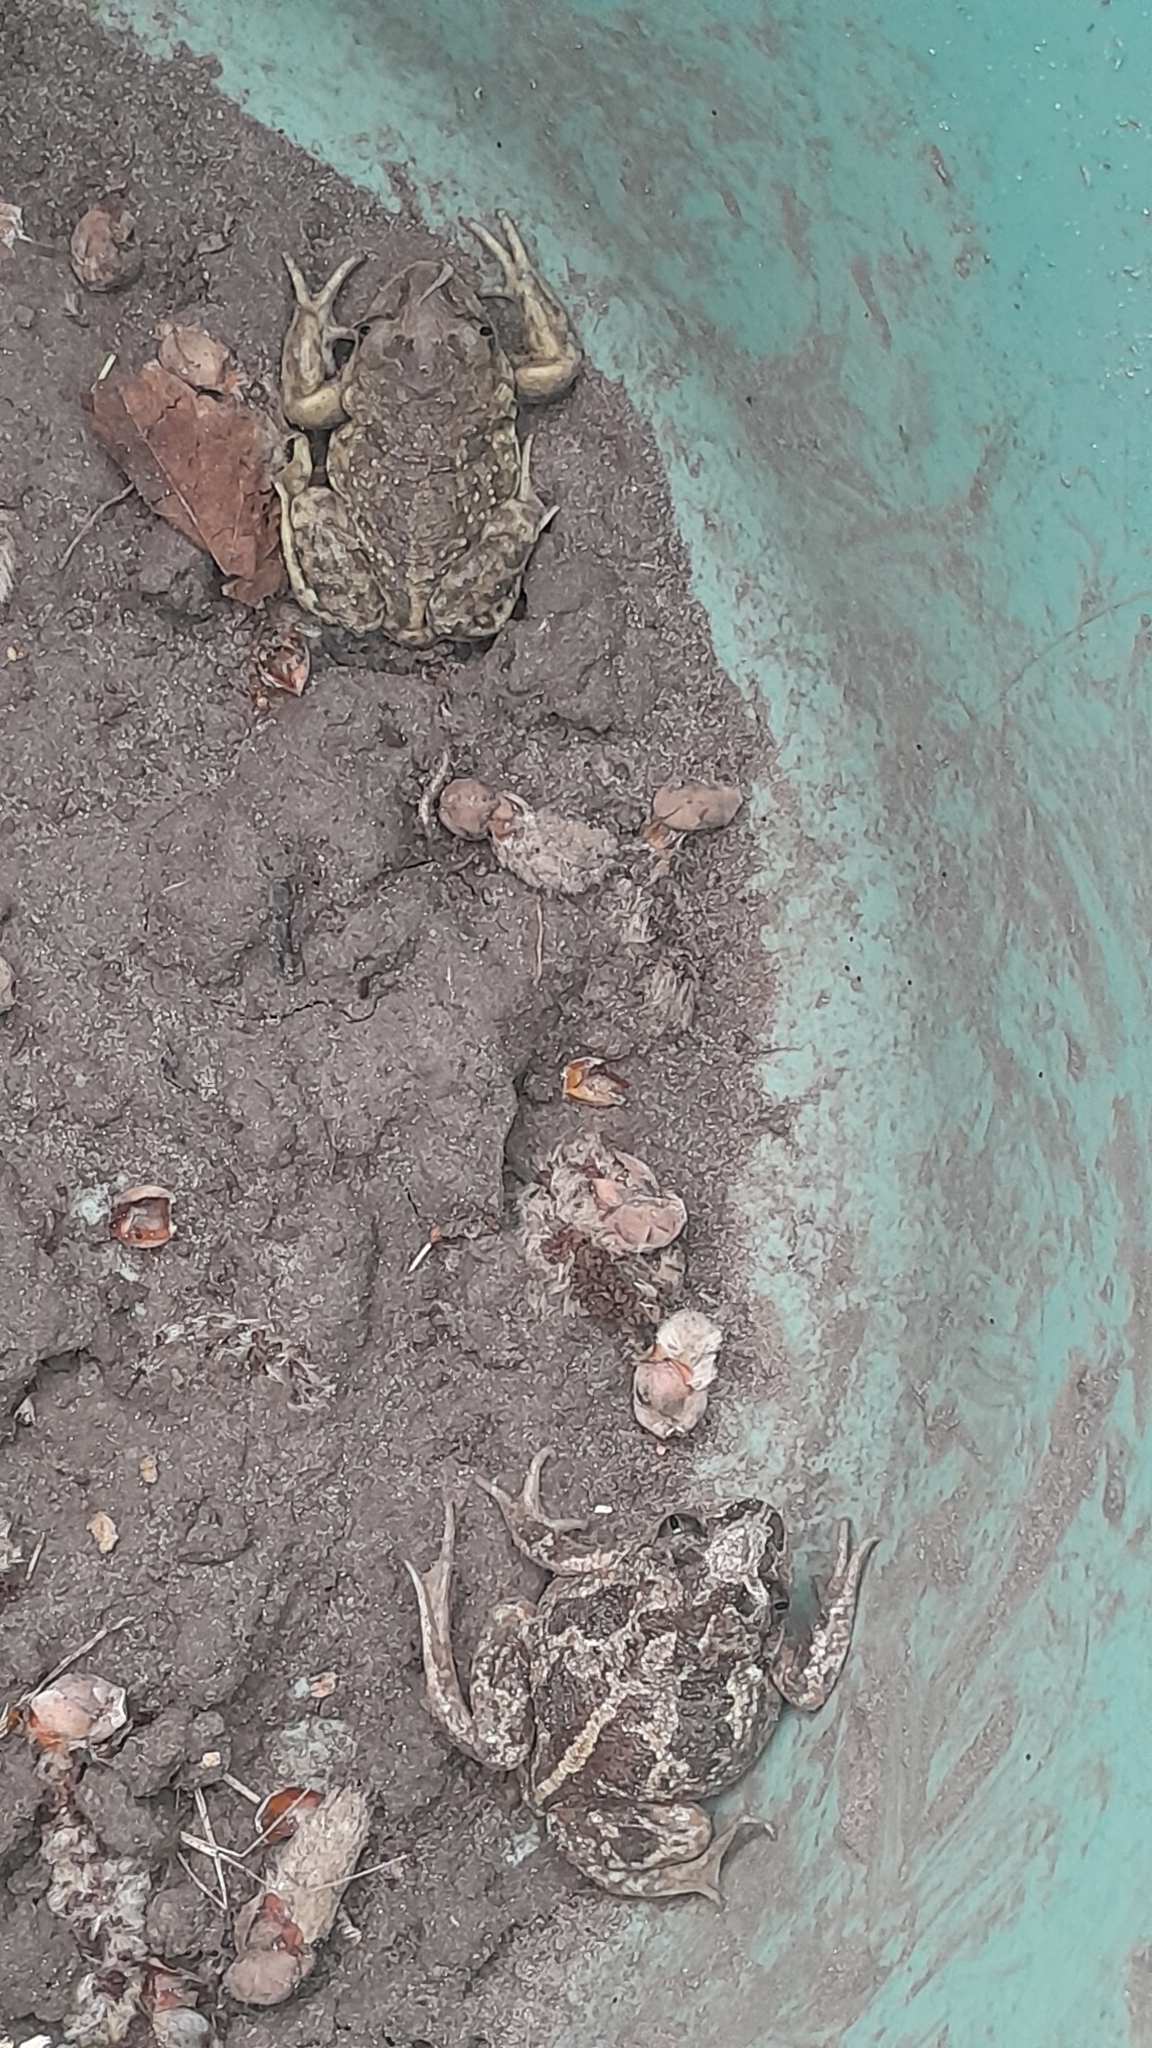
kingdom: Animalia
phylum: Chordata
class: Amphibia
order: Anura
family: Pelobatidae
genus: Pelobates
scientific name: Pelobates fuscus
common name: Common eurasian spadefoot toad
